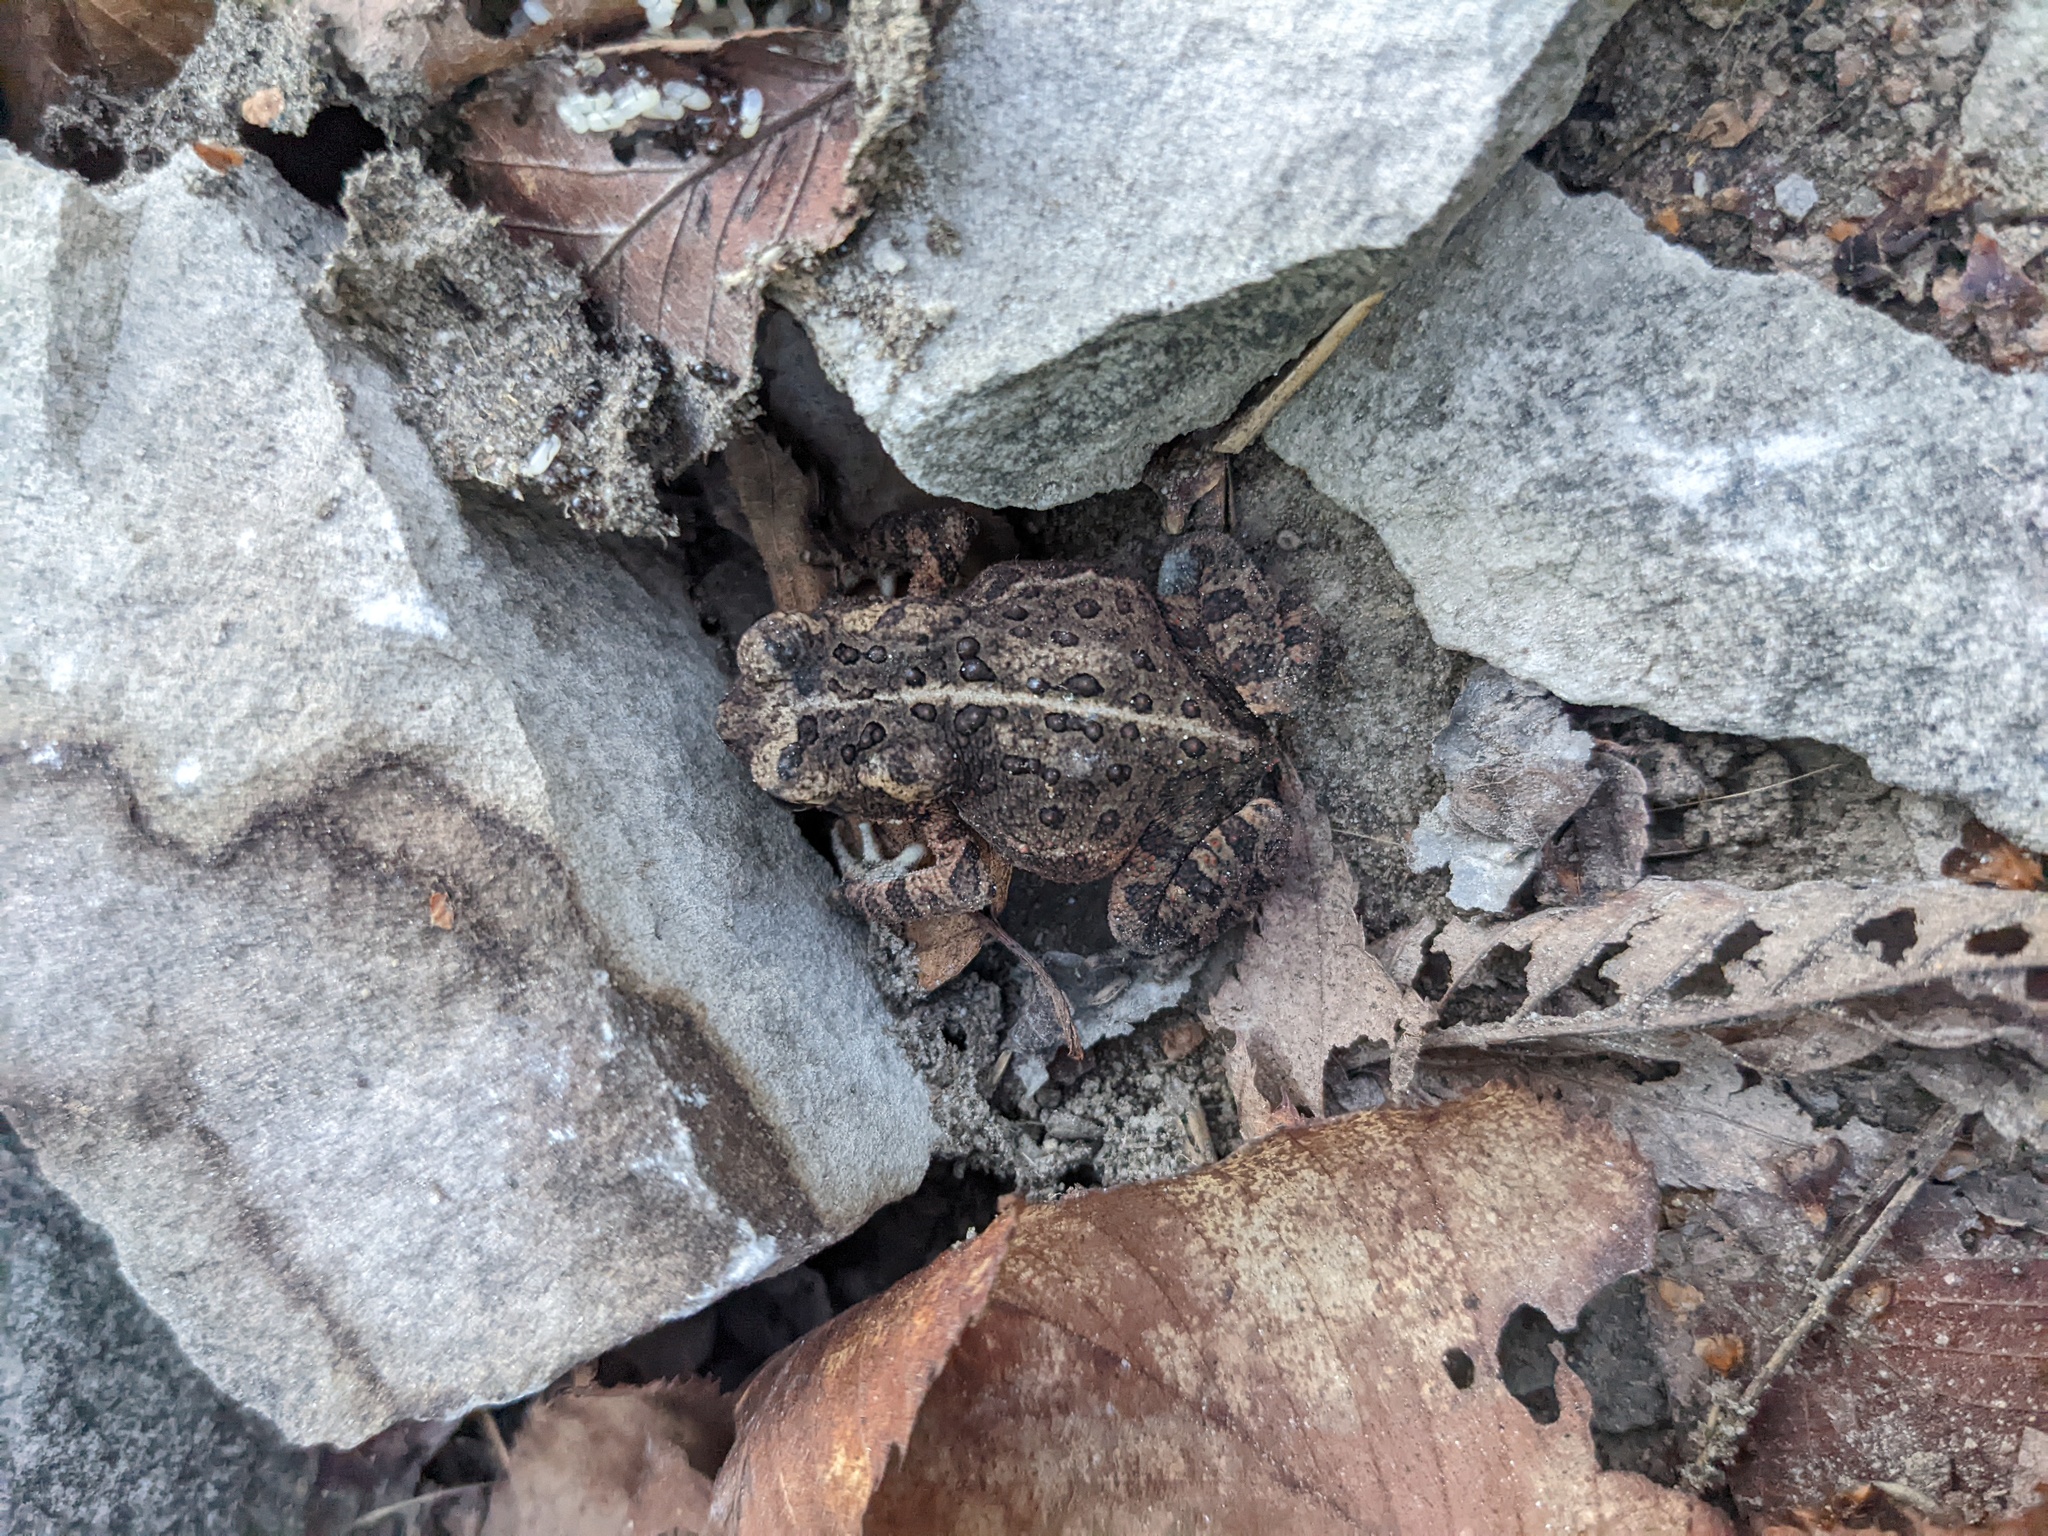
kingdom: Animalia
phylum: Chordata
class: Amphibia
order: Anura
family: Bufonidae
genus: Anaxyrus
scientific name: Anaxyrus americanus
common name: American toad
